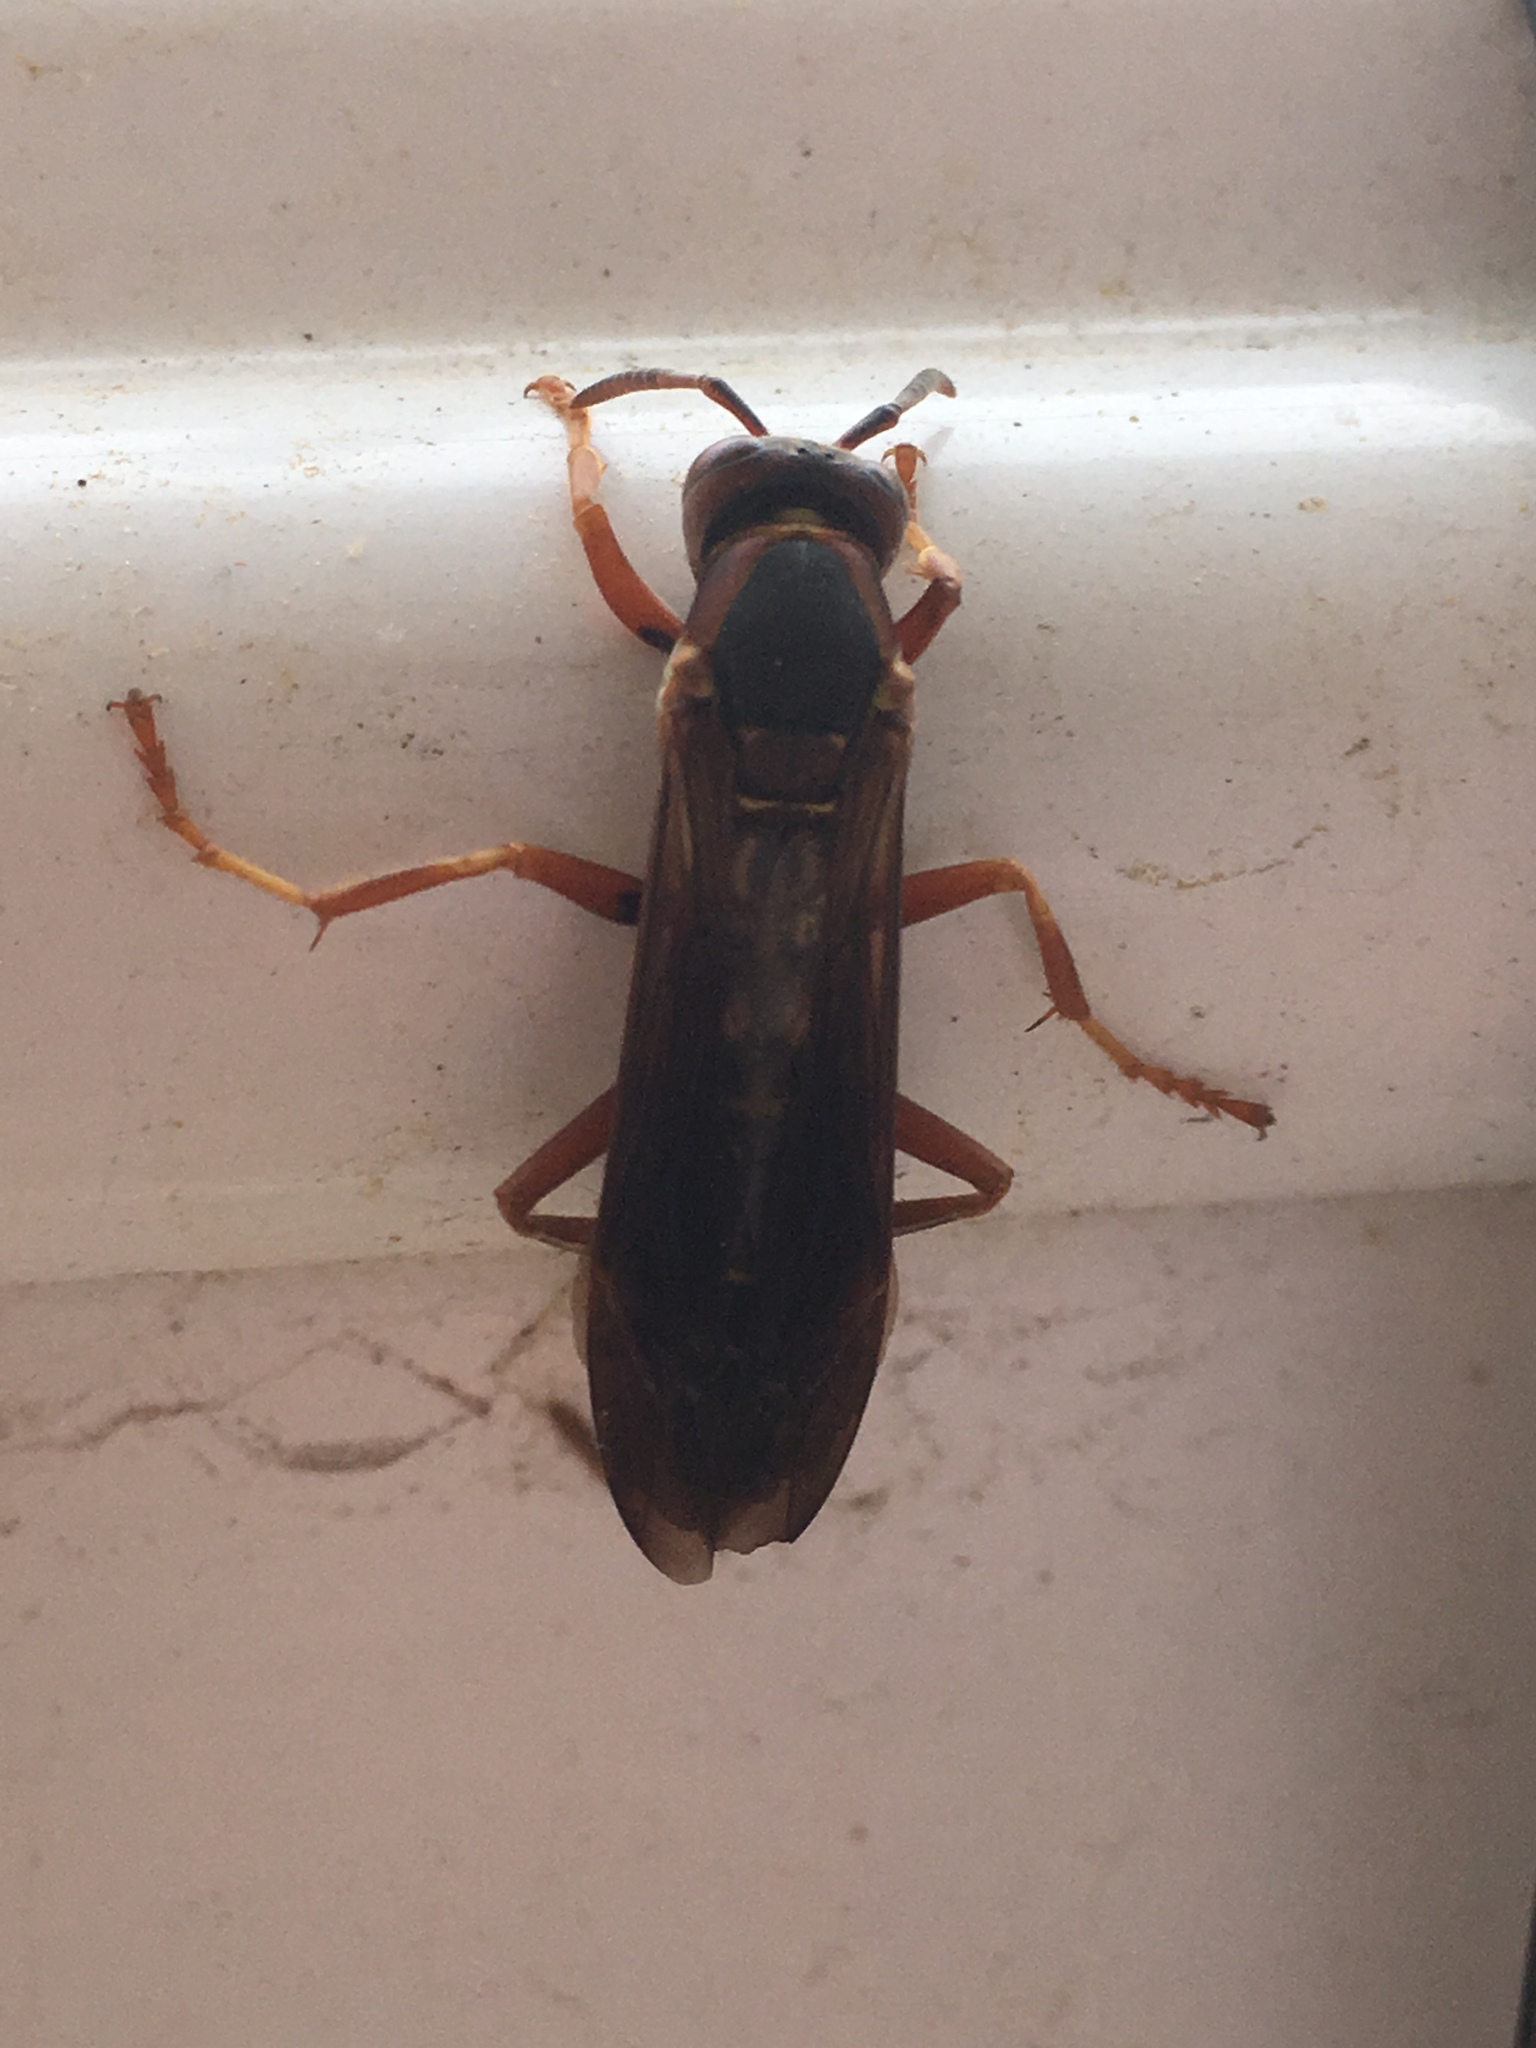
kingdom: Animalia
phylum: Arthropoda
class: Insecta
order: Hymenoptera
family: Eumenidae
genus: Polistes
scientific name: Polistes fuscatus
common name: Dark paper wasp
